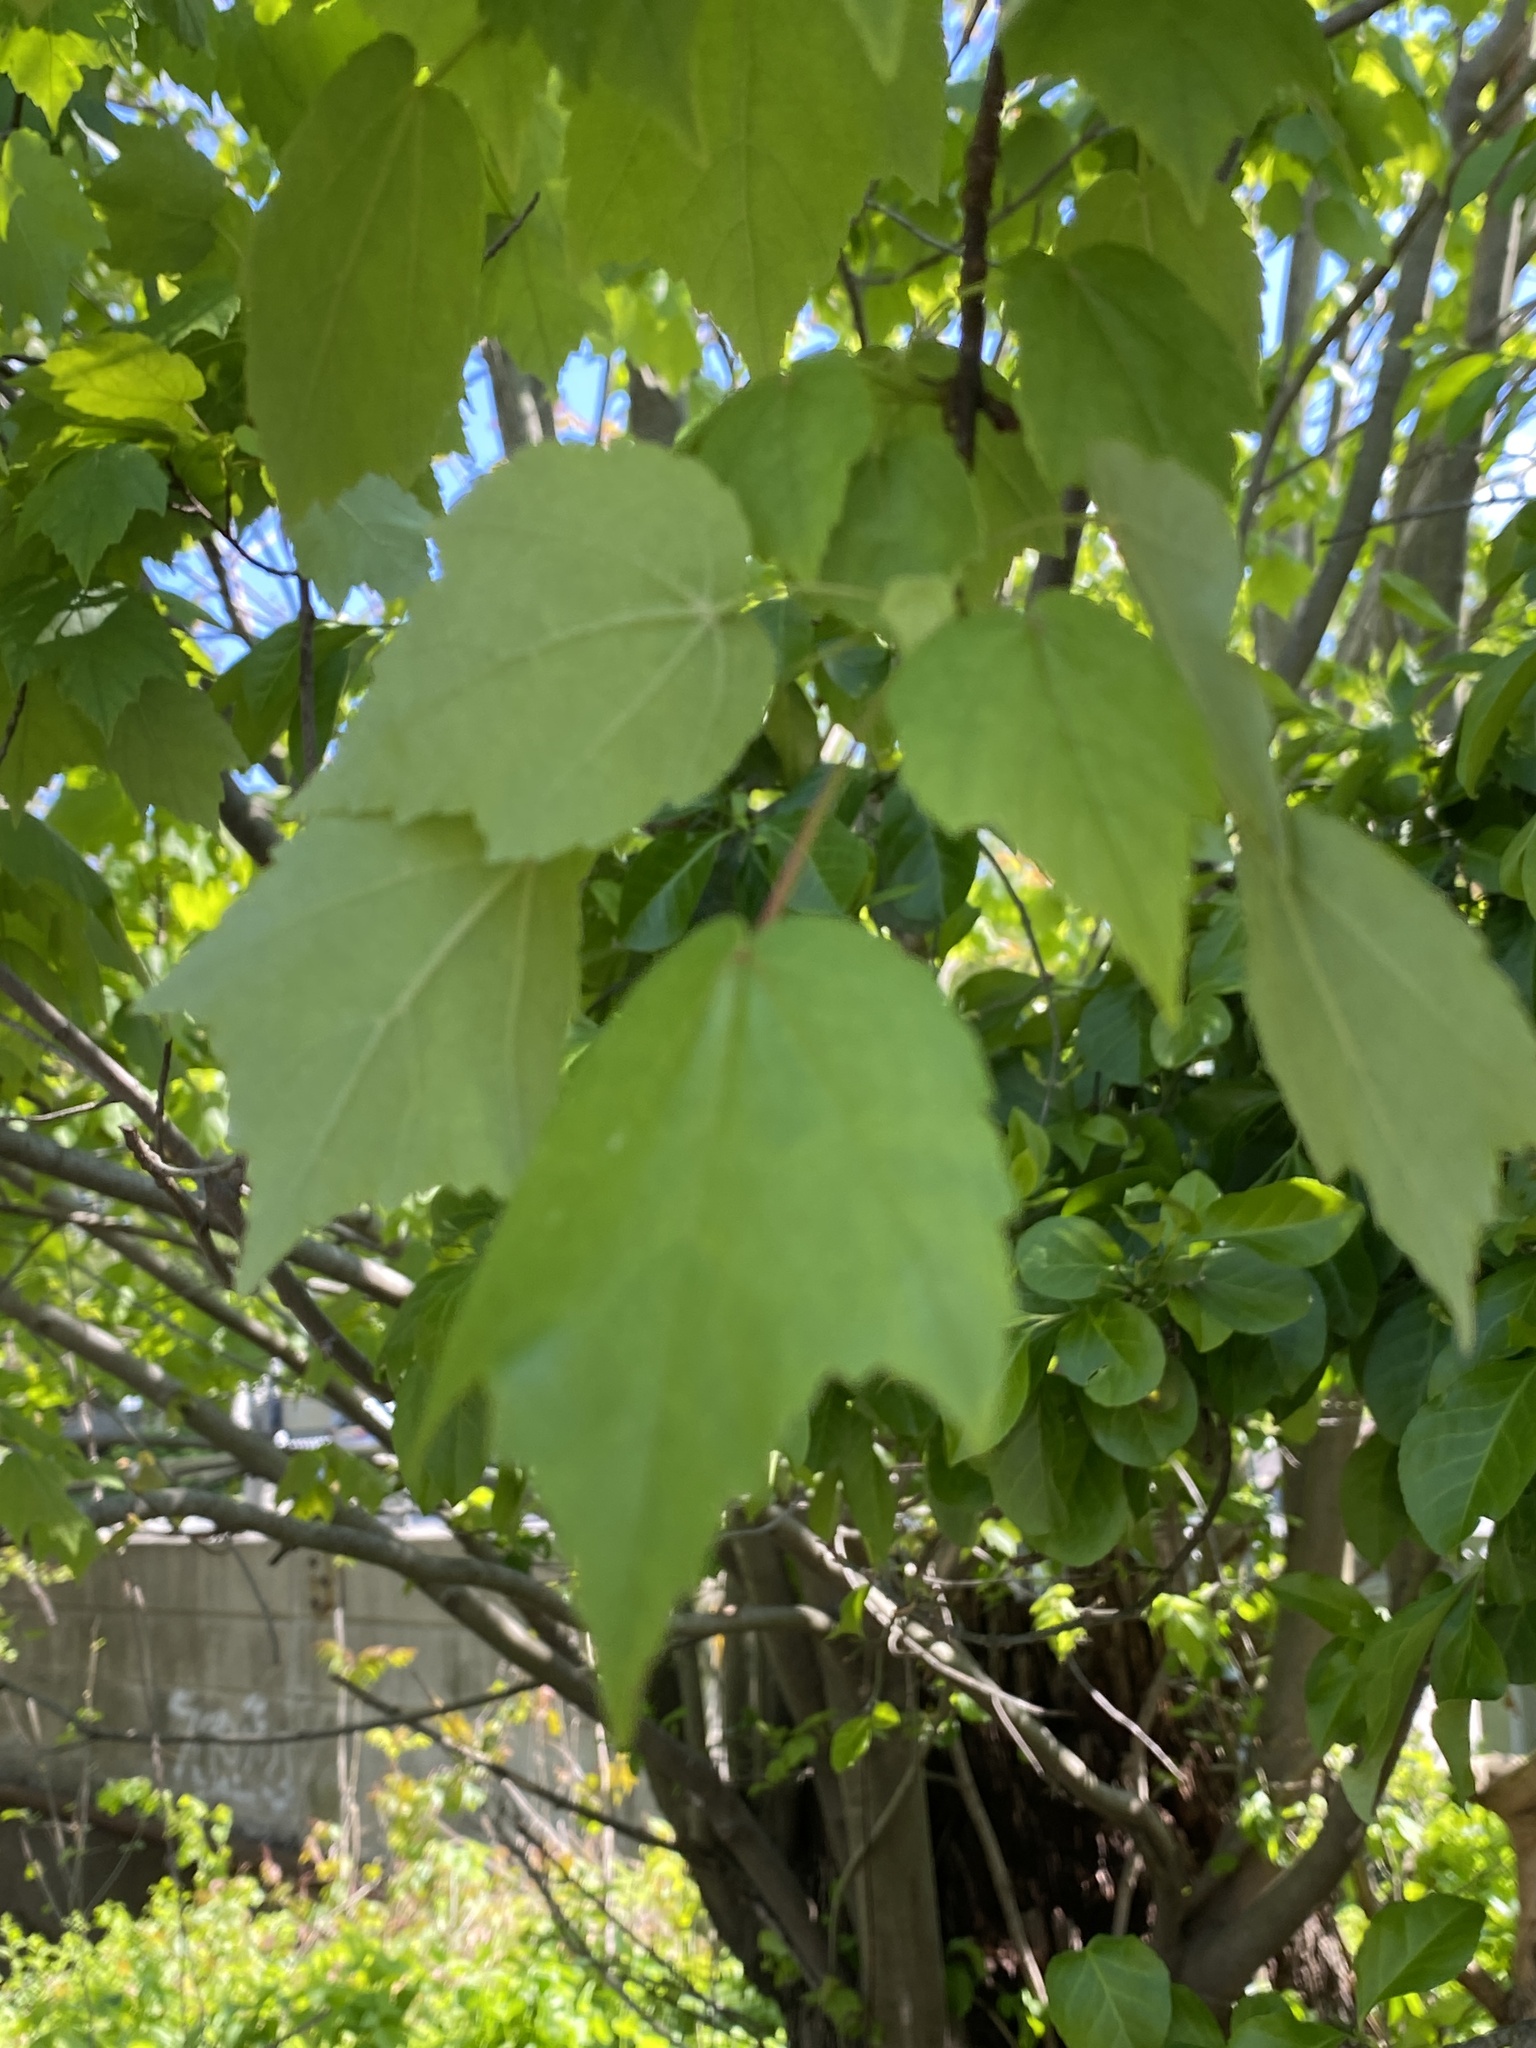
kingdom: Plantae
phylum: Tracheophyta
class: Magnoliopsida
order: Sapindales
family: Sapindaceae
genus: Acer
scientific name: Acer rubrum
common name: Red maple
